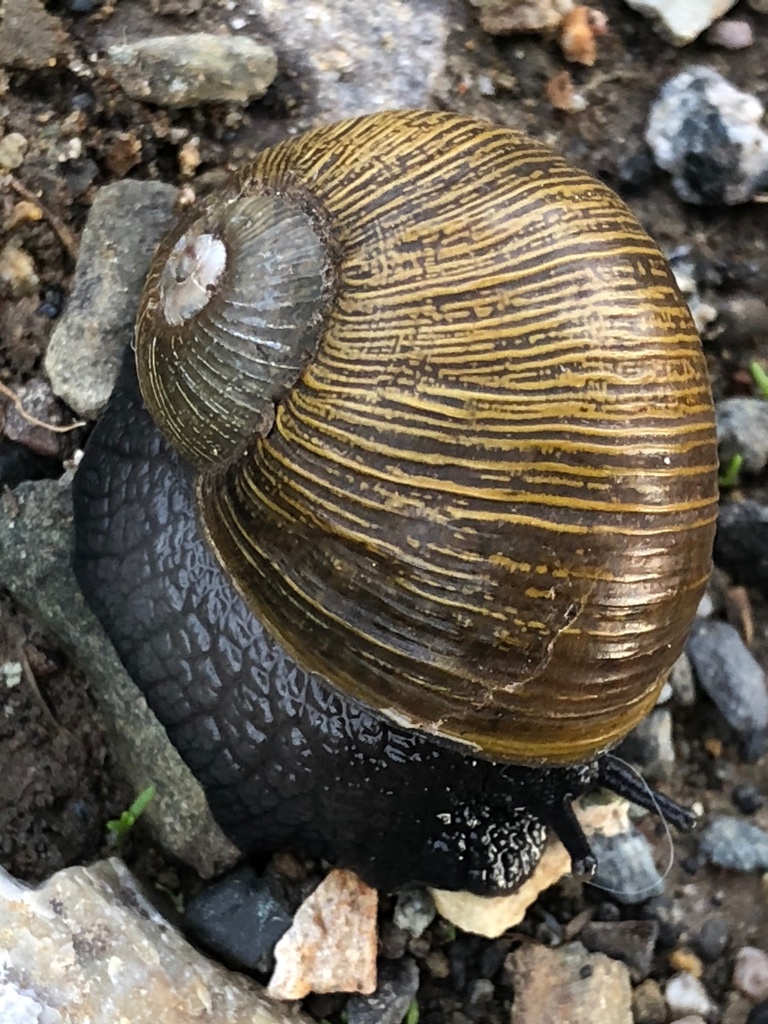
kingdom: Animalia
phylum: Mollusca
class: Gastropoda
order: Stylommatophora
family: Helicidae
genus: Cantareus
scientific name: Cantareus apertus
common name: Green gardensnail
